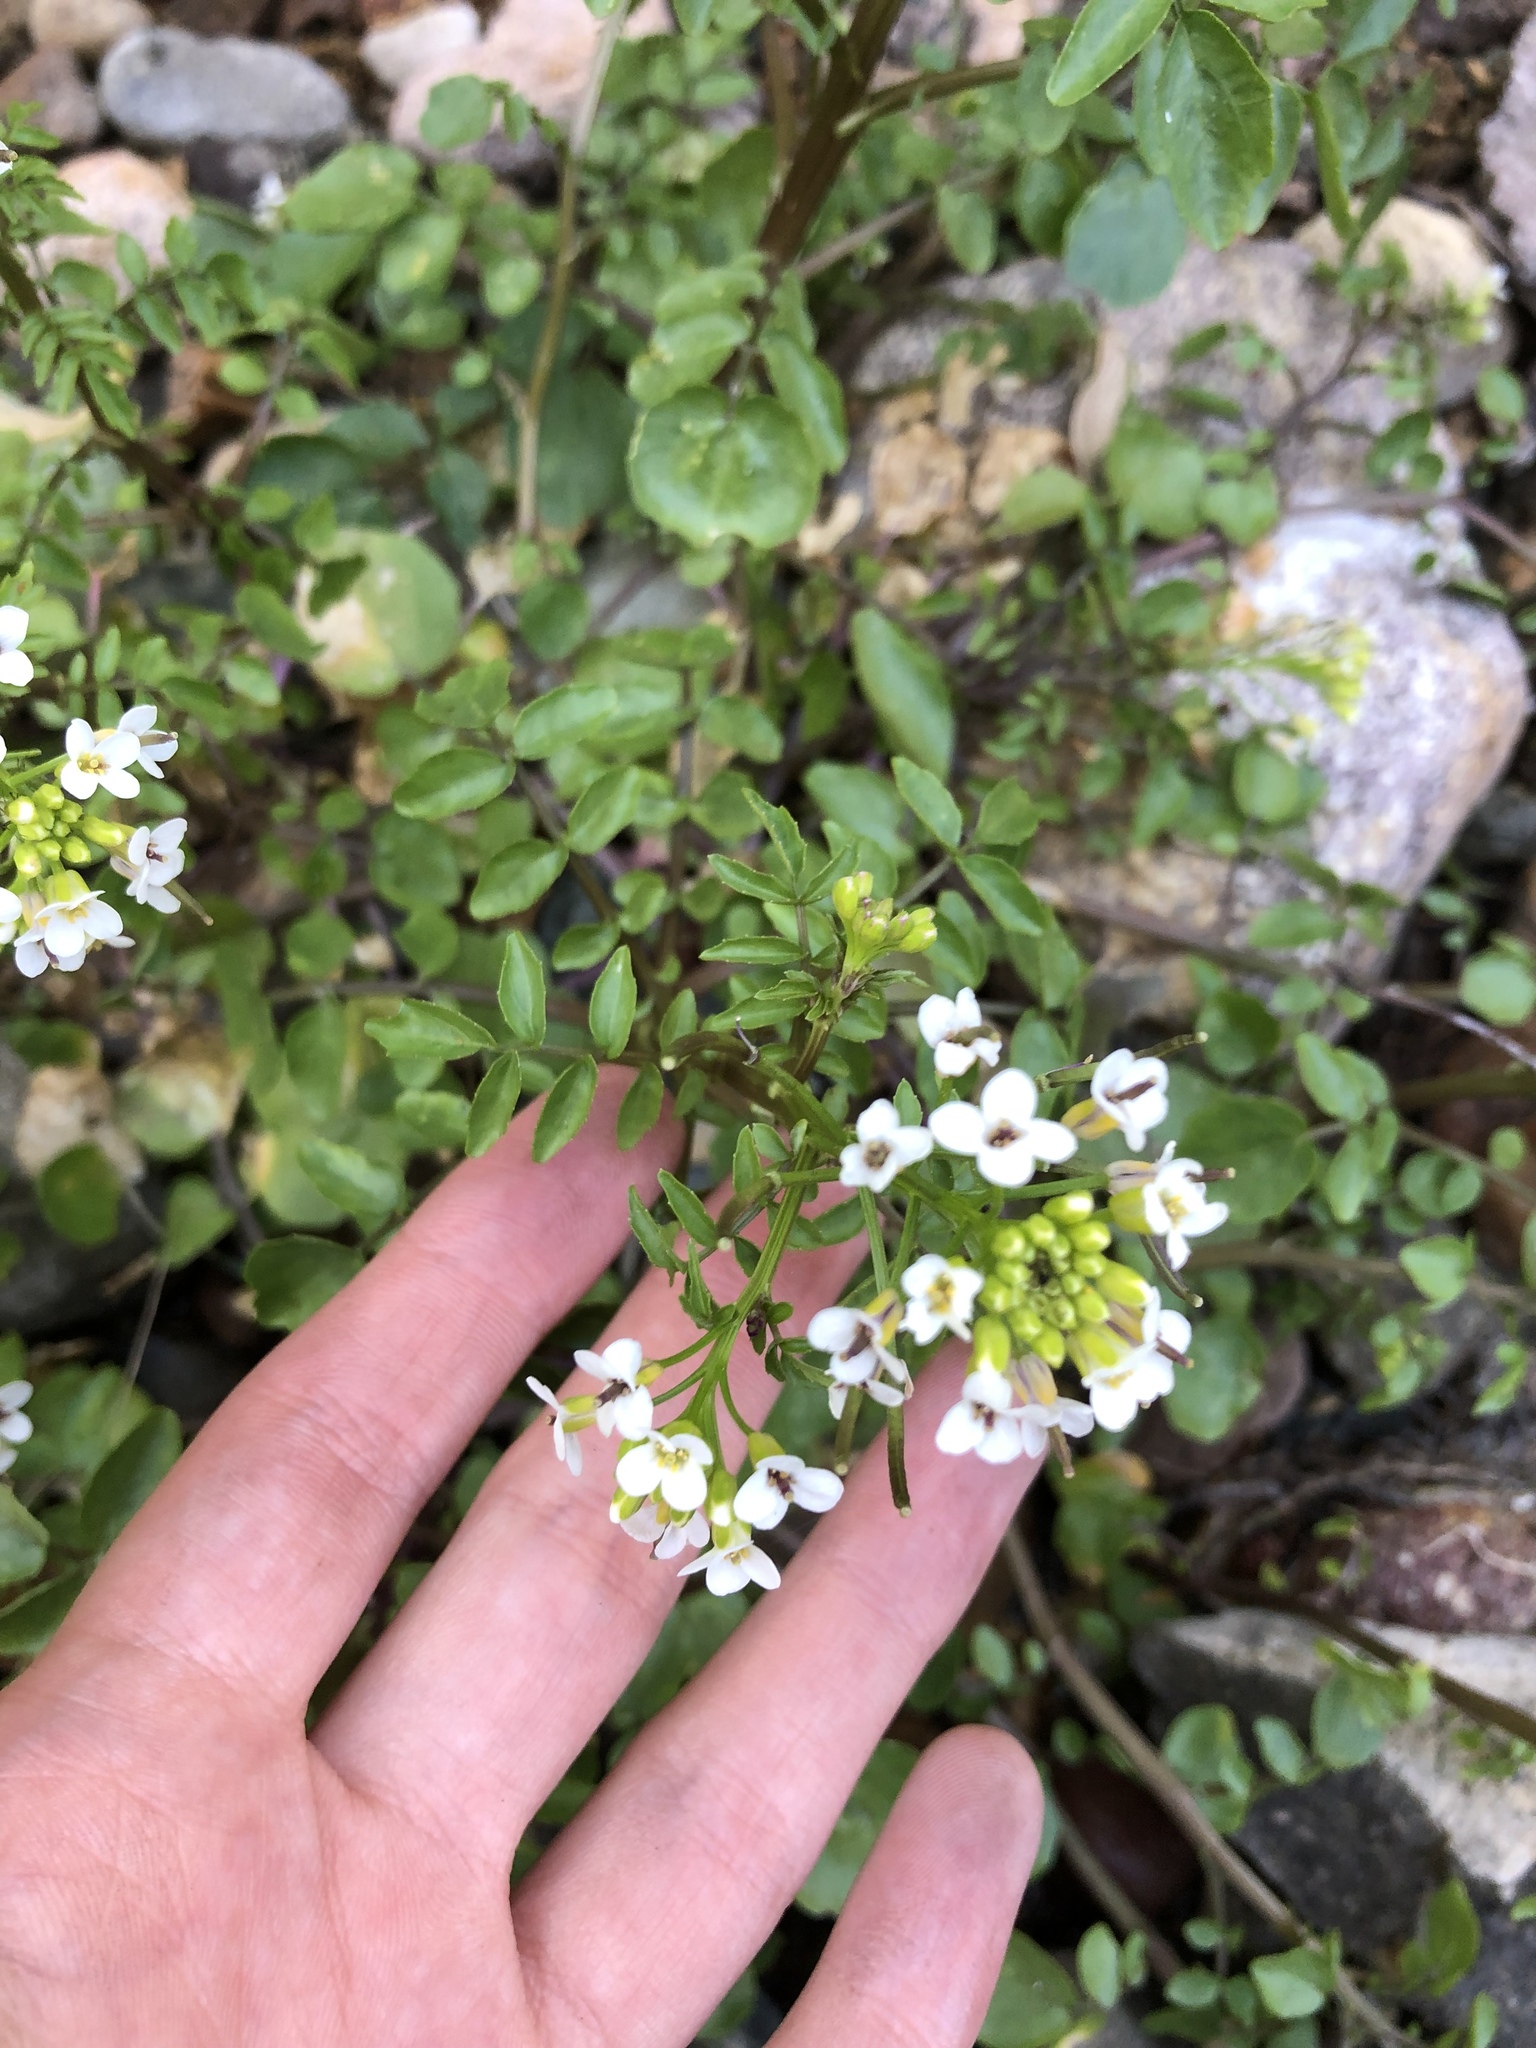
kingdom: Plantae
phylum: Tracheophyta
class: Magnoliopsida
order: Brassicales
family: Brassicaceae
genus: Nasturtium
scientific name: Nasturtium officinale
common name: Watercress
